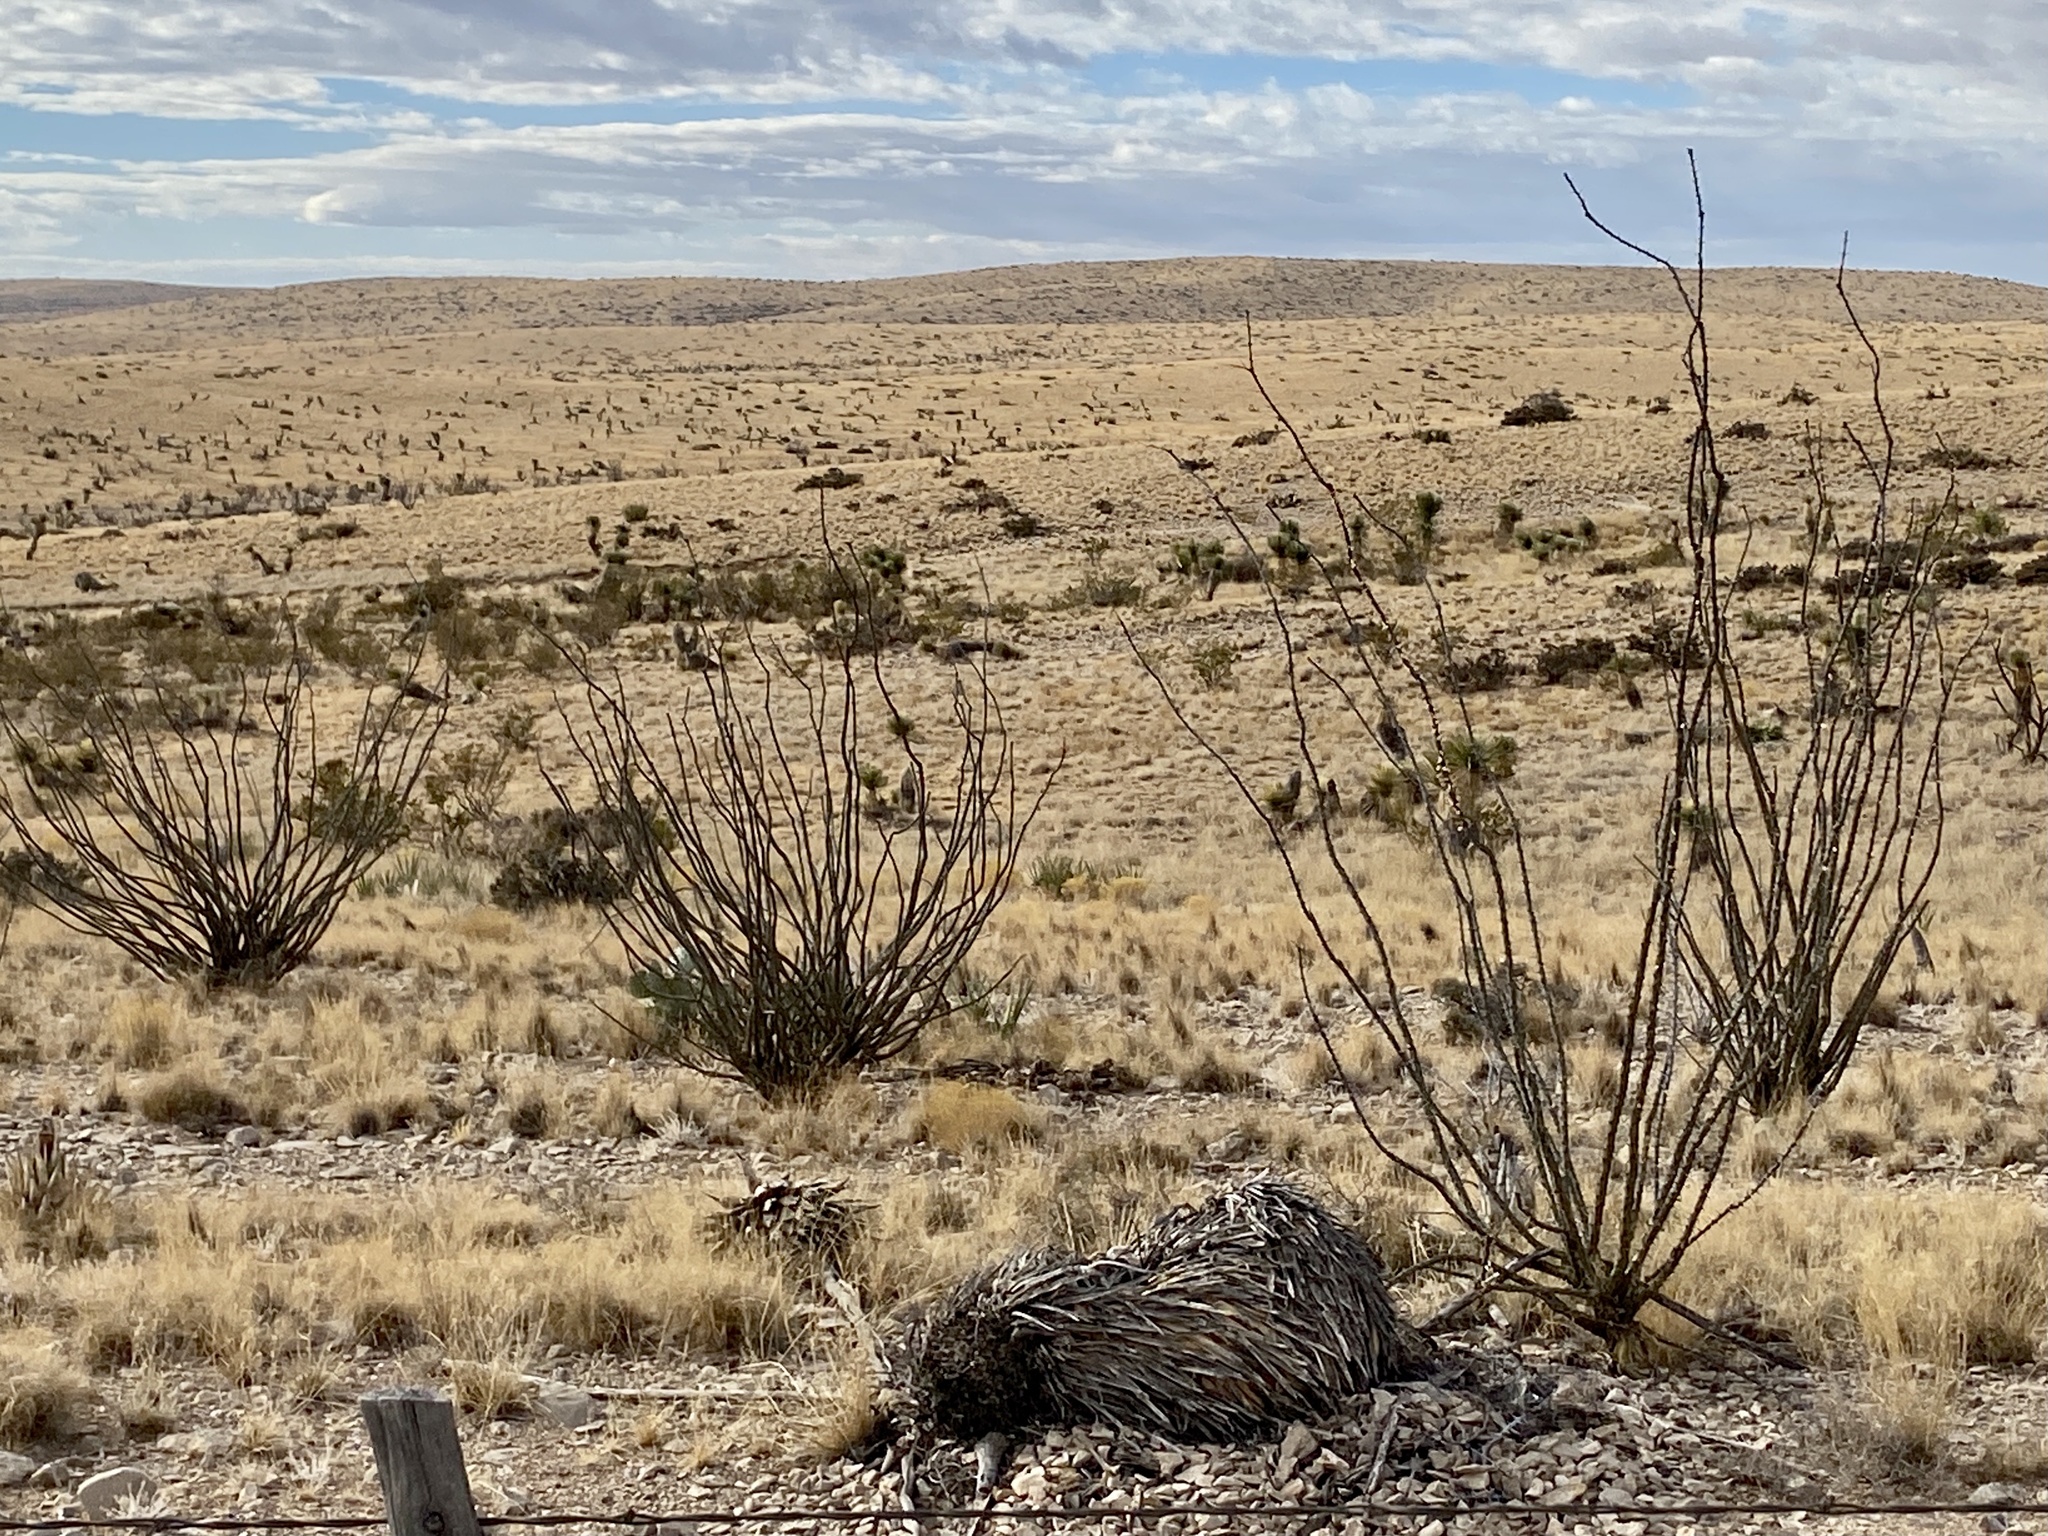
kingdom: Plantae
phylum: Tracheophyta
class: Magnoliopsida
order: Ericales
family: Fouquieriaceae
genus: Fouquieria
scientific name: Fouquieria splendens
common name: Vine-cactus
